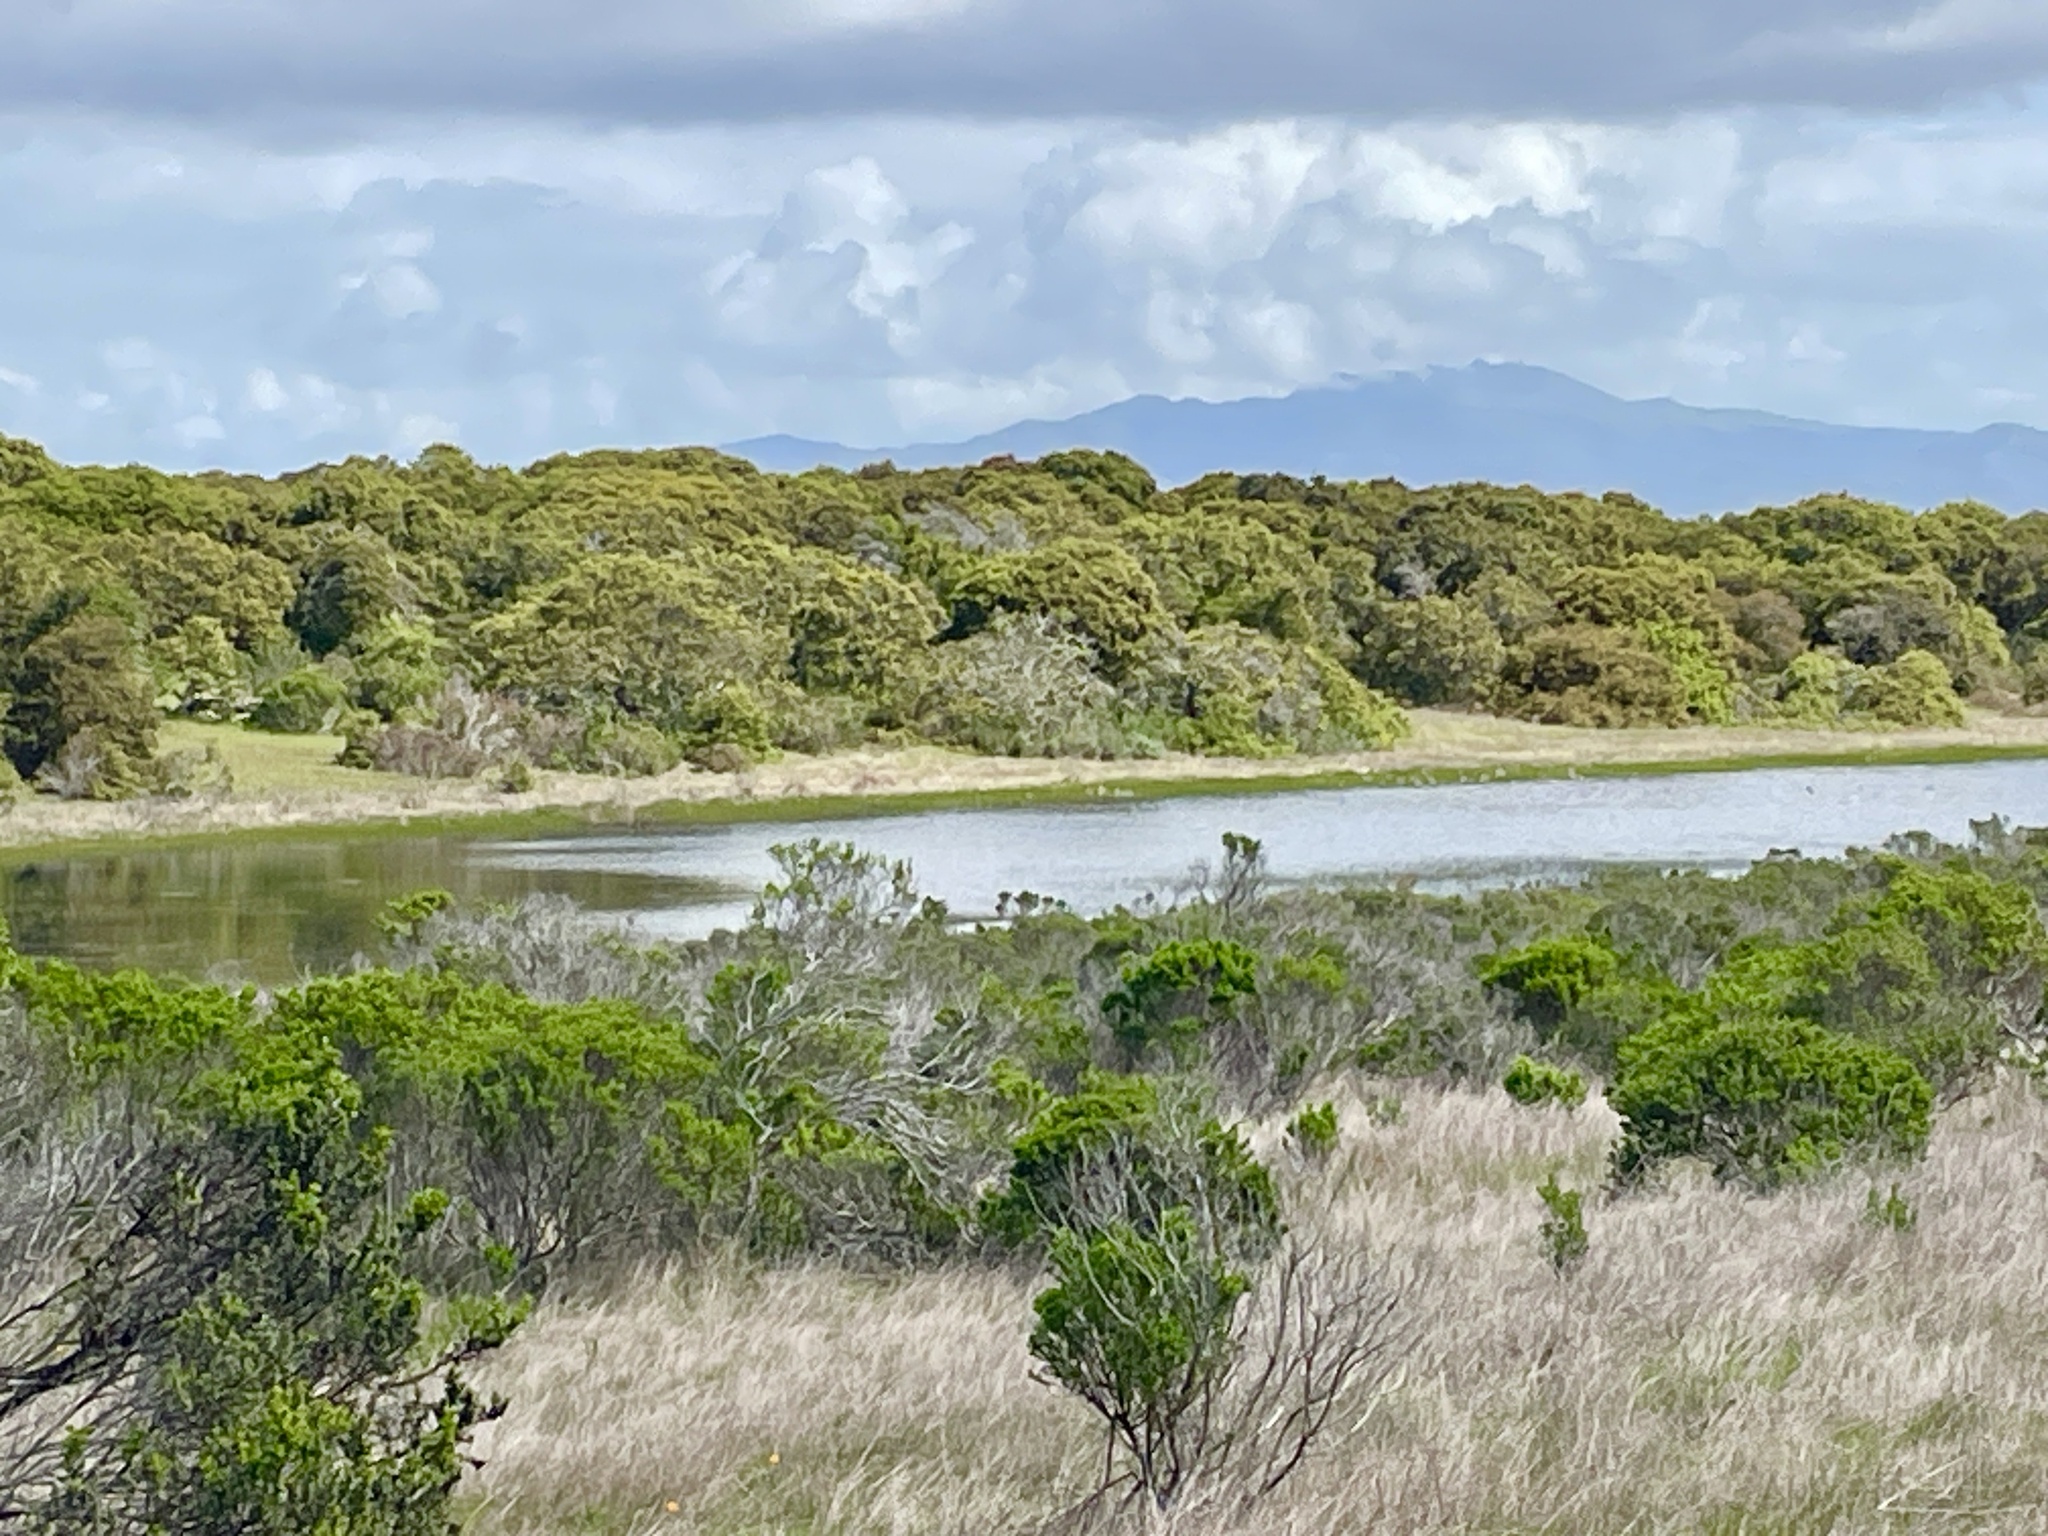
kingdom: Plantae
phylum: Tracheophyta
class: Liliopsida
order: Liliales
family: Liliaceae
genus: Calochortus
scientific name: Calochortus uniflorus
